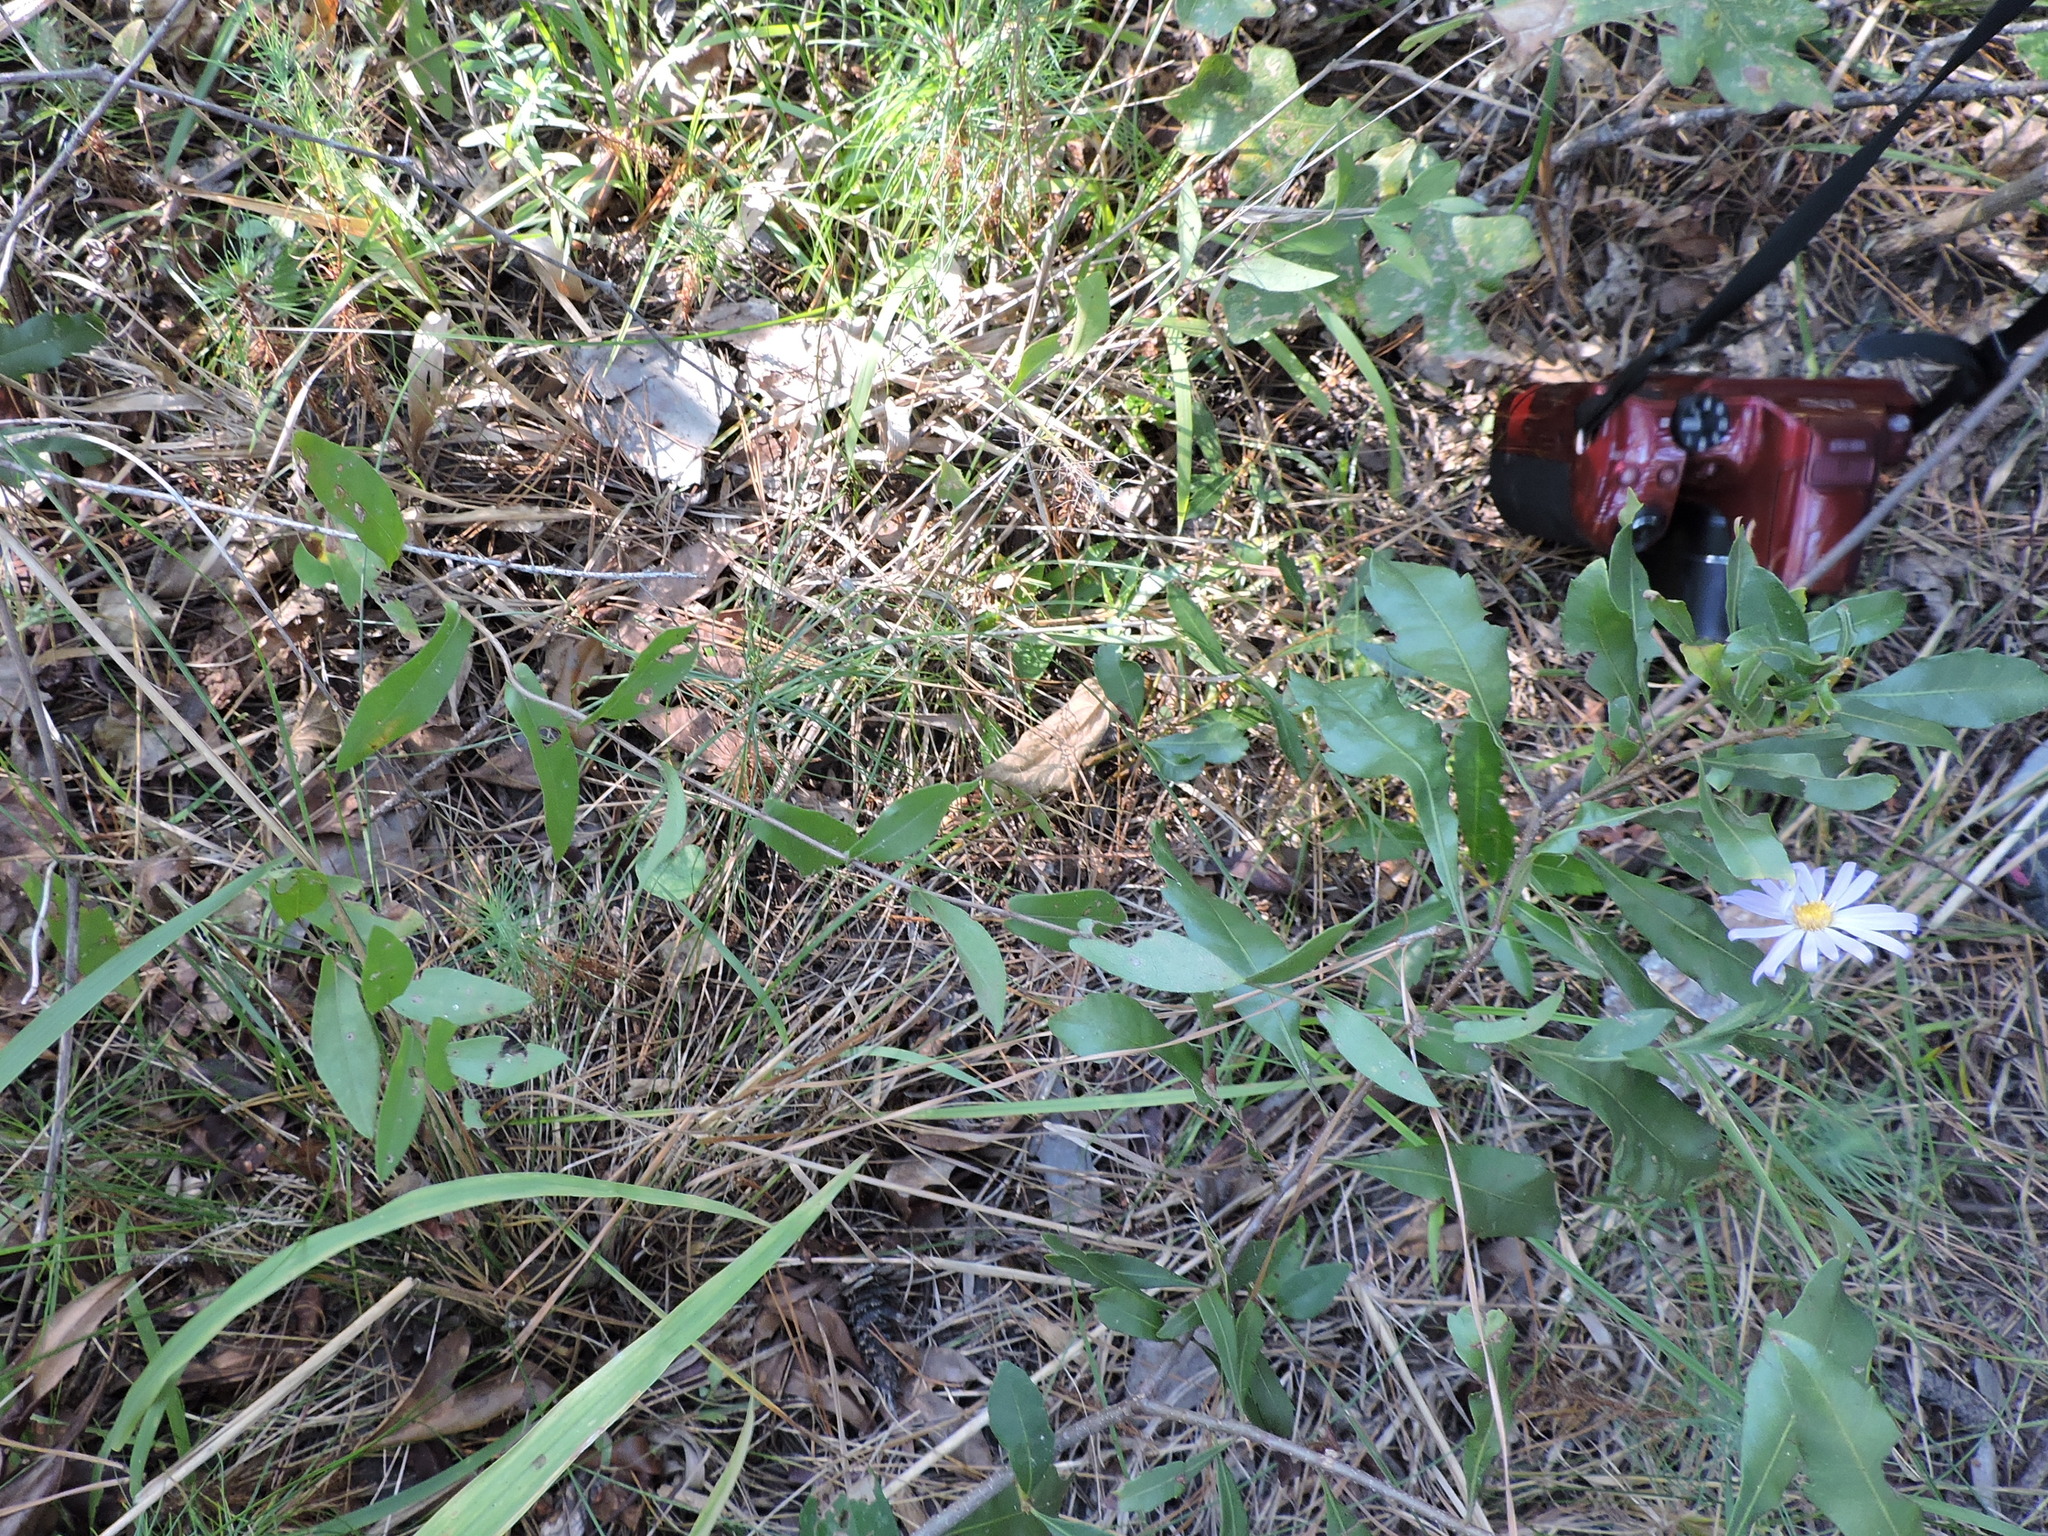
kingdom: Plantae
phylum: Tracheophyta
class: Magnoliopsida
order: Asterales
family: Asteraceae
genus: Symphyotrichum
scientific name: Symphyotrichum patens
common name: Late purple aster
